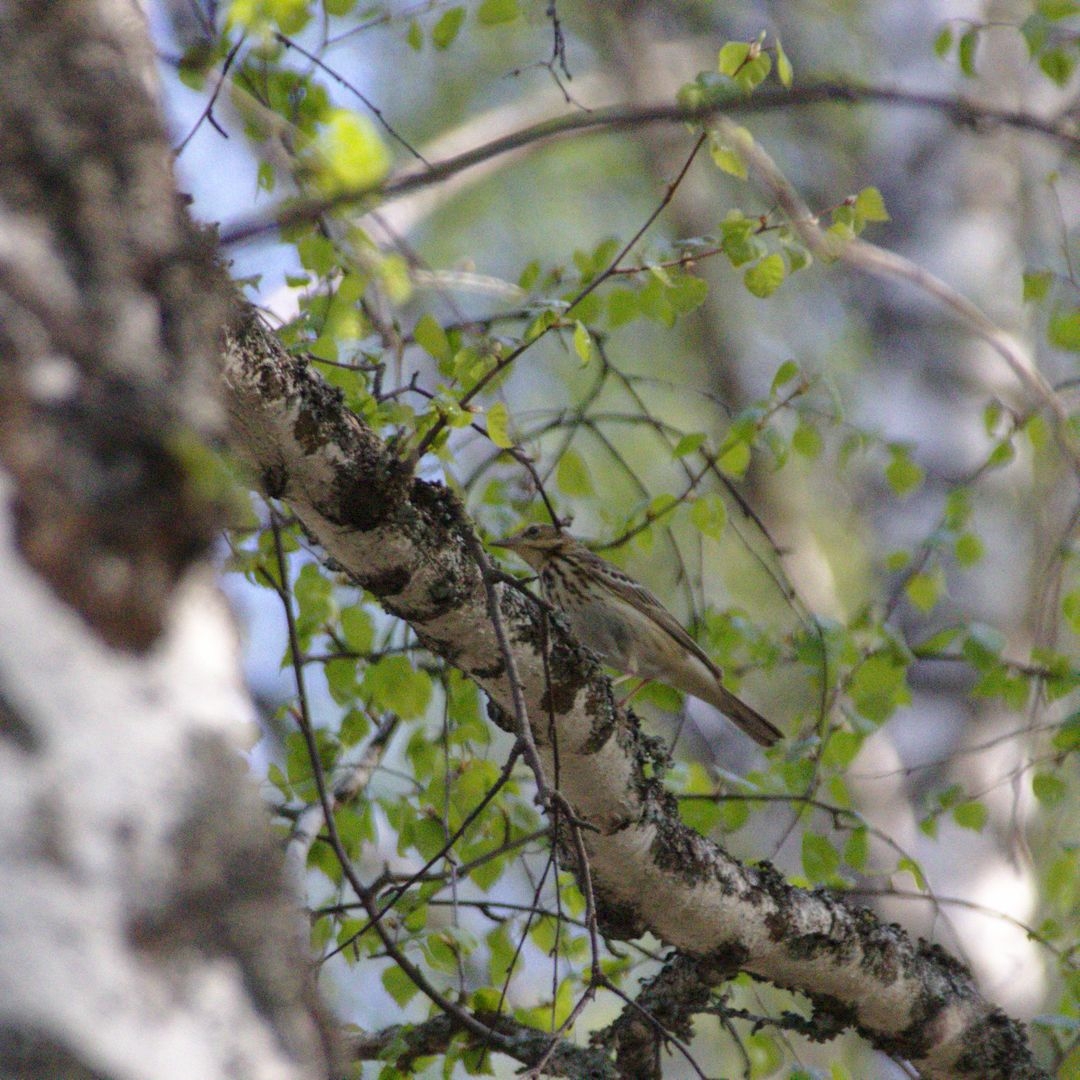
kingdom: Animalia
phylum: Chordata
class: Aves
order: Passeriformes
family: Motacillidae
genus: Anthus
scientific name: Anthus trivialis
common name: Tree pipit
